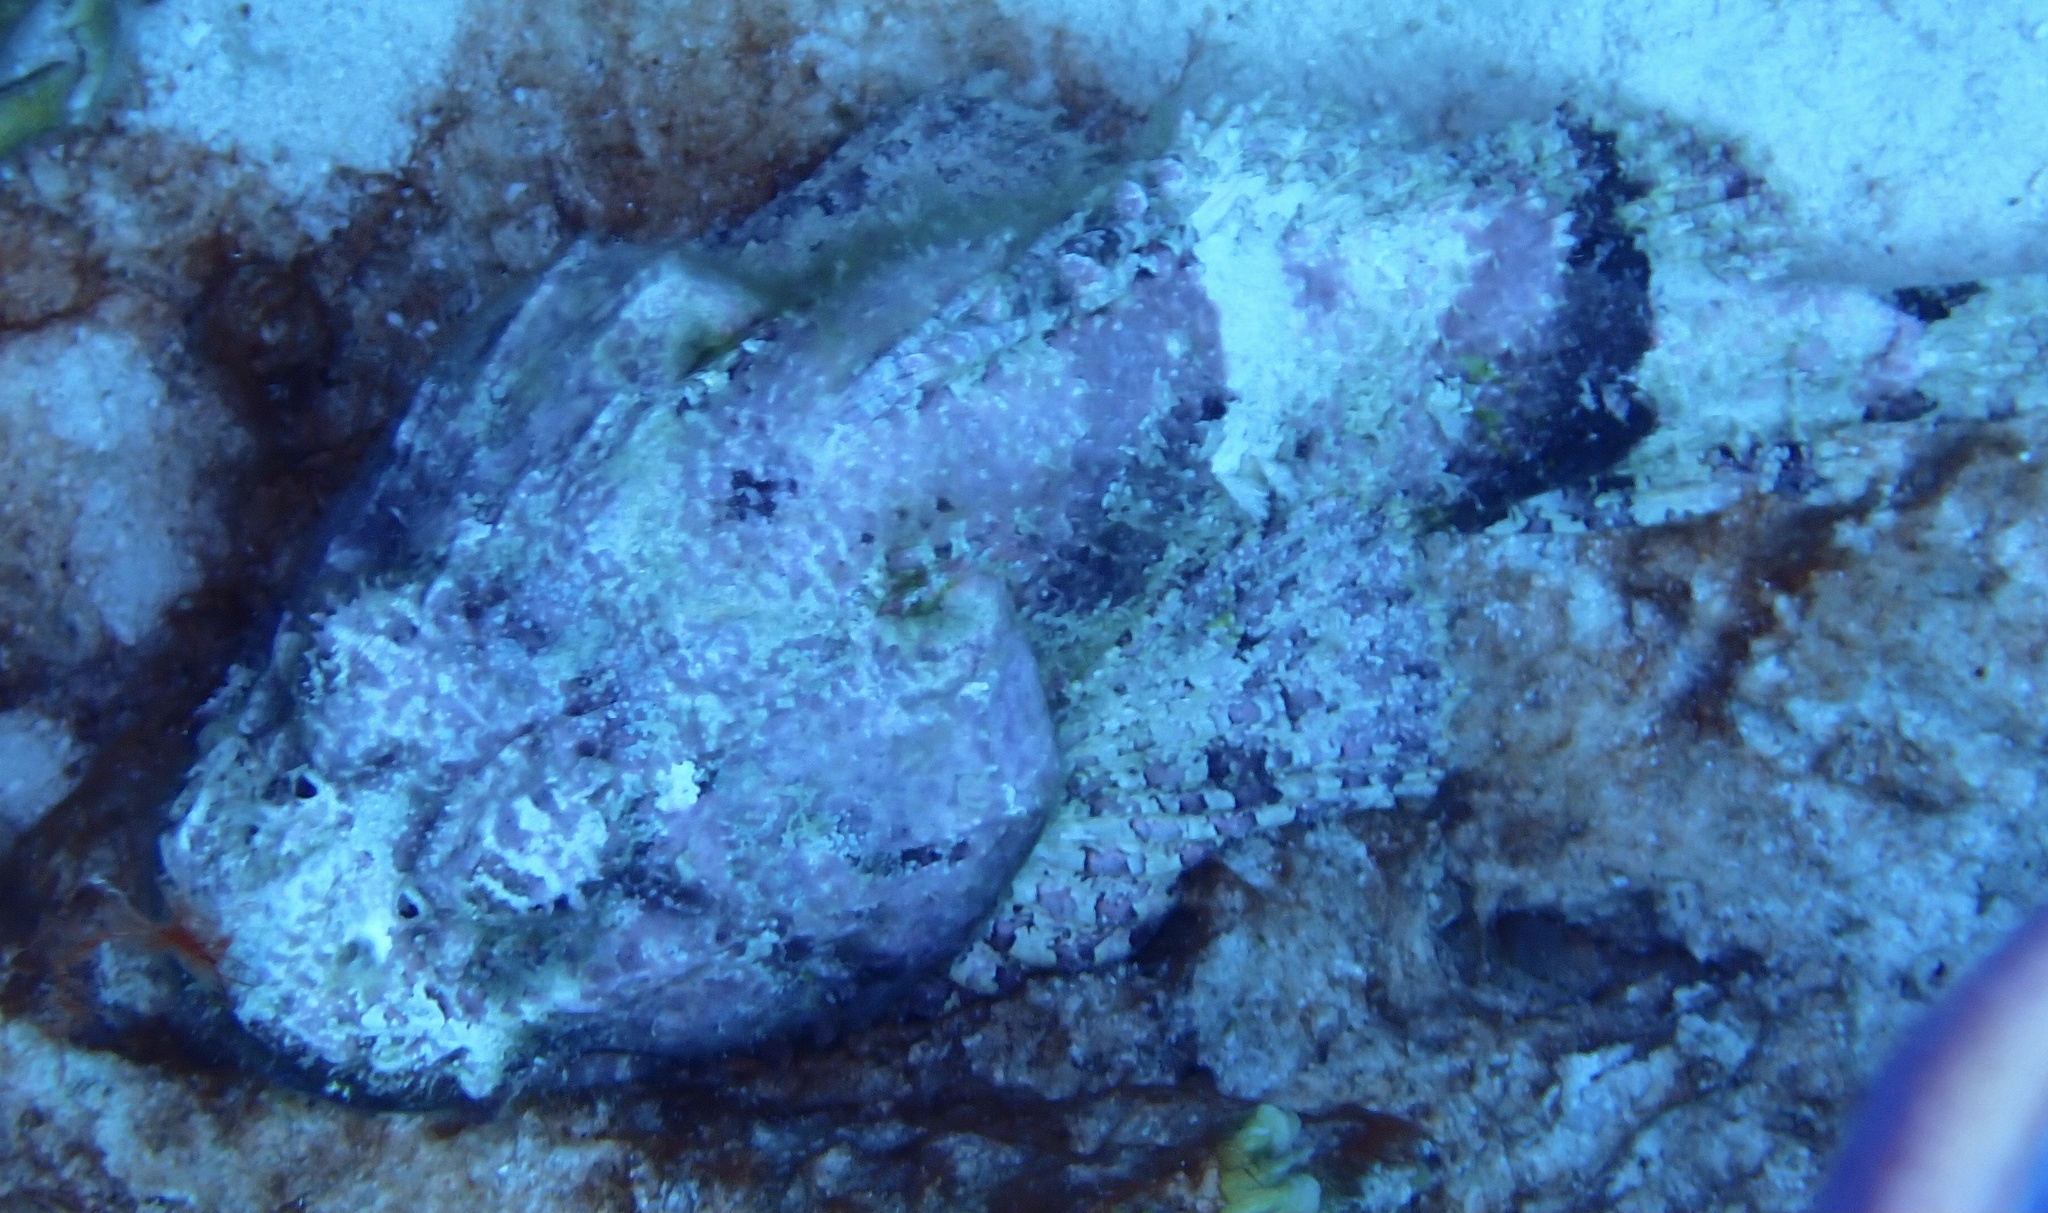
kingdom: Animalia
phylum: Chordata
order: Scorpaeniformes
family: Scorpaenidae
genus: Scorpaena
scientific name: Scorpaena plumieri
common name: Spotted scorpionfish
